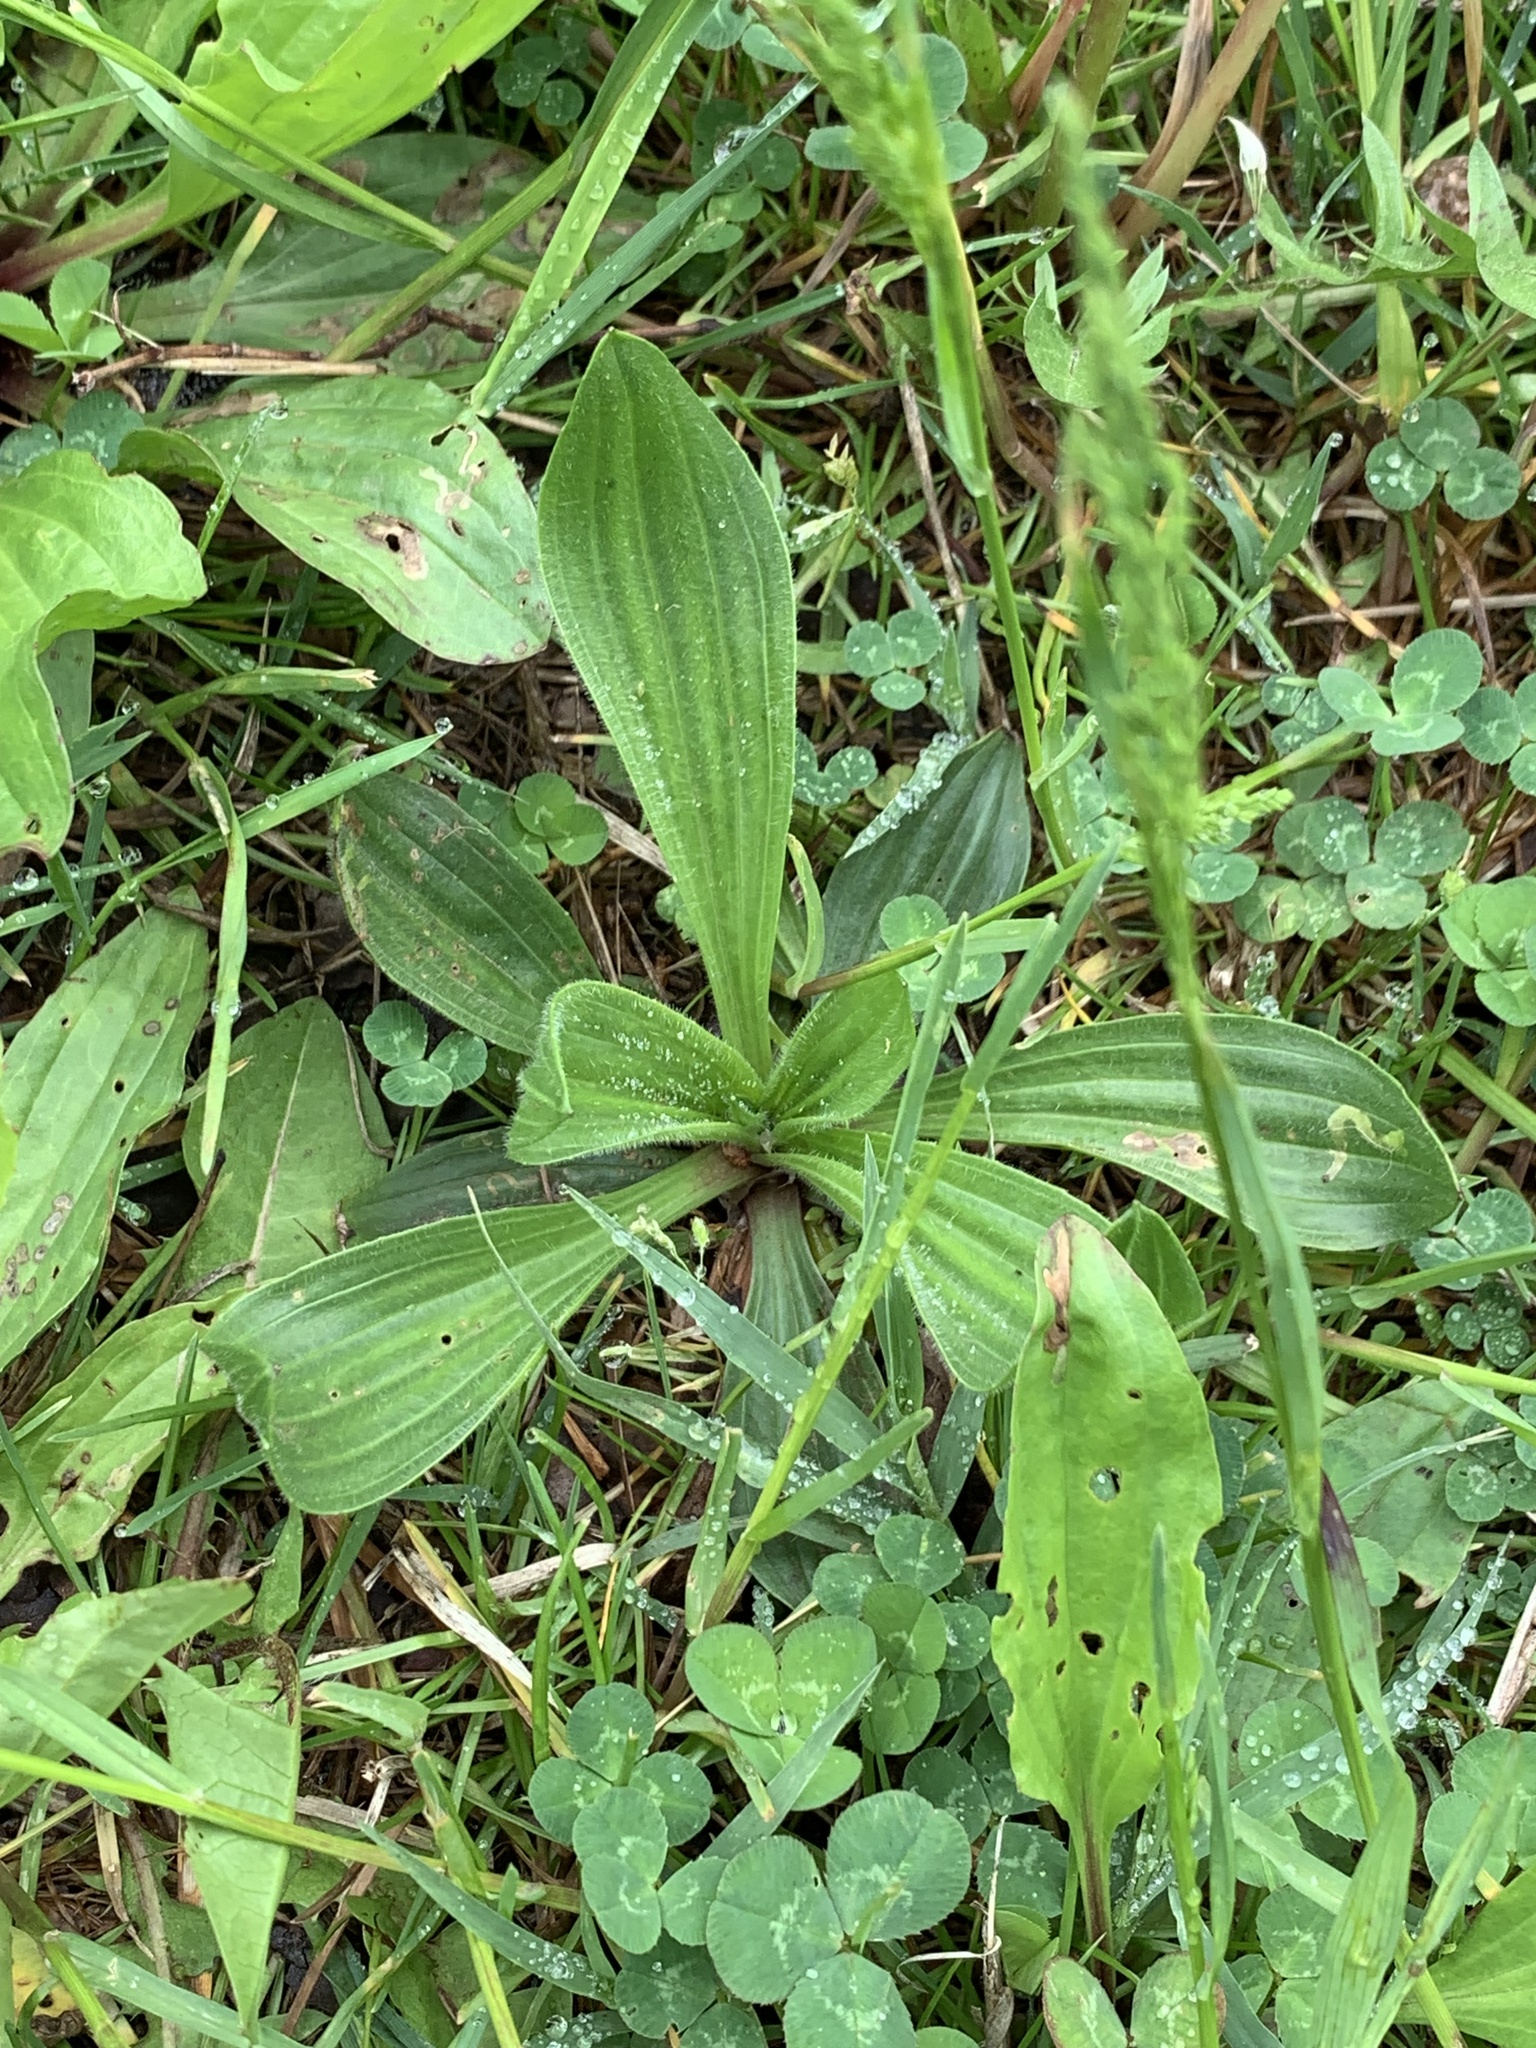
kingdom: Plantae
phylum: Tracheophyta
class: Magnoliopsida
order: Lamiales
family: Plantaginaceae
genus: Plantago
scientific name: Plantago lanceolata
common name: Ribwort plantain
